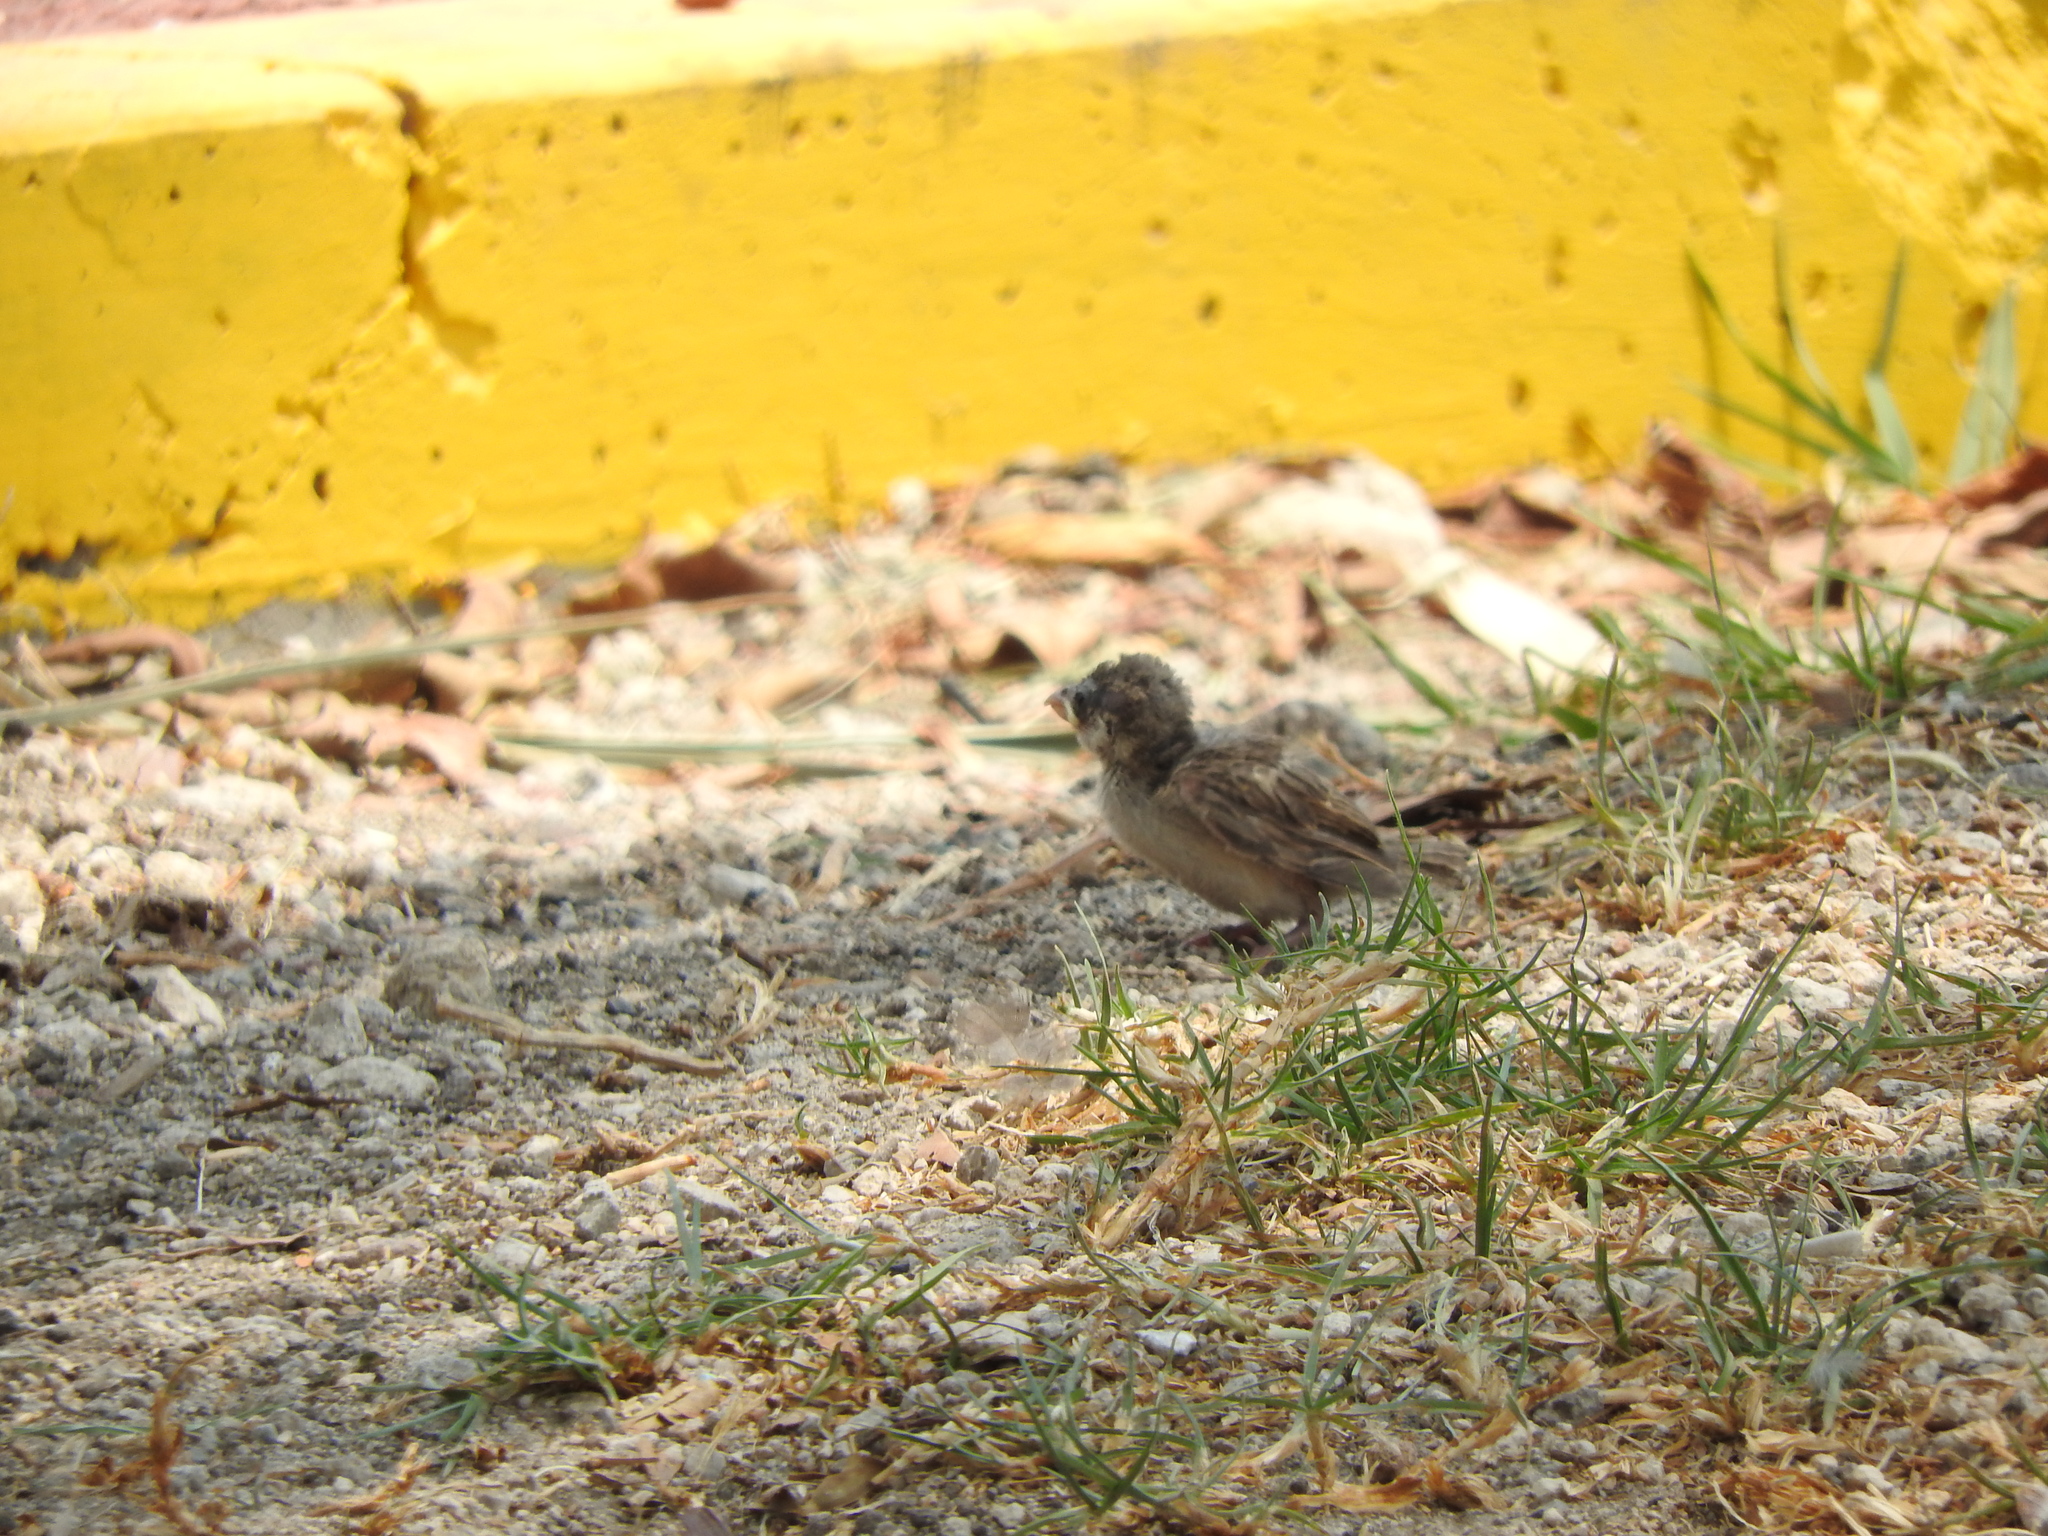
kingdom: Animalia
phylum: Chordata
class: Aves
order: Passeriformes
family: Passeridae
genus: Passer
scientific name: Passer domesticus
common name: House sparrow
